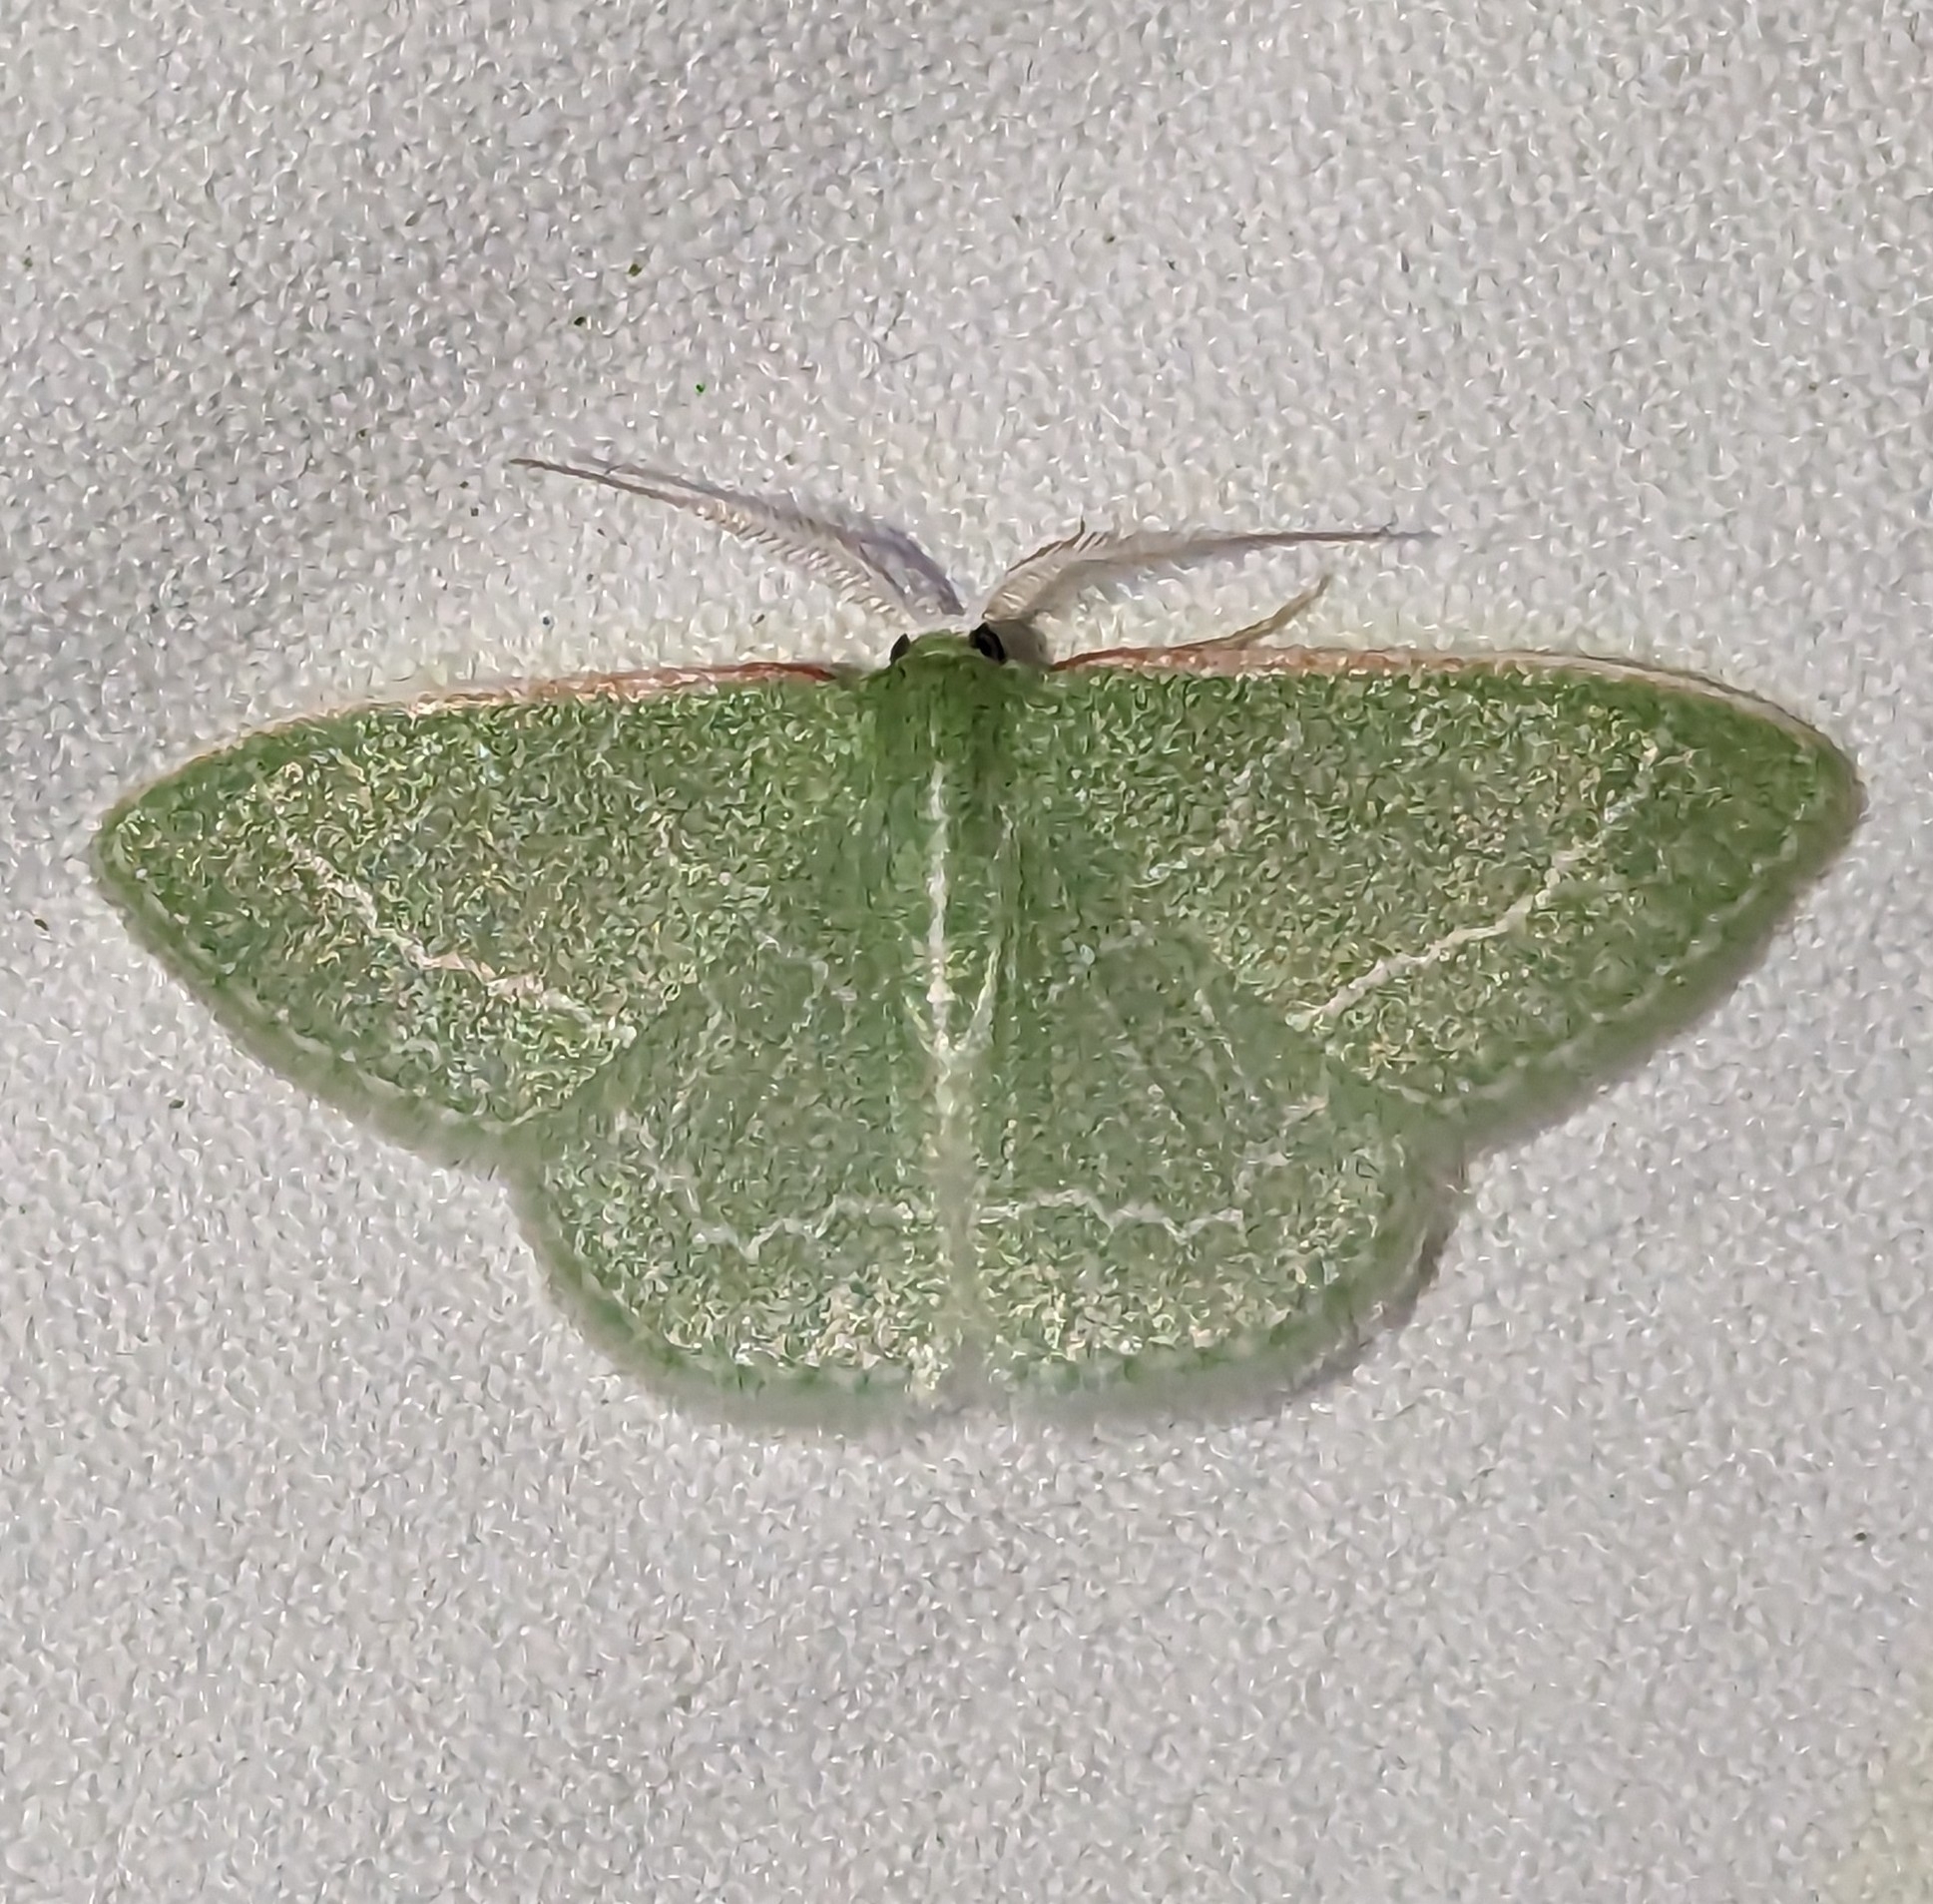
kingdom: Animalia
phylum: Arthropoda
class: Insecta
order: Lepidoptera
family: Geometridae
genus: Synchlora
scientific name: Synchlora aerata
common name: Wavy-lined emerald
